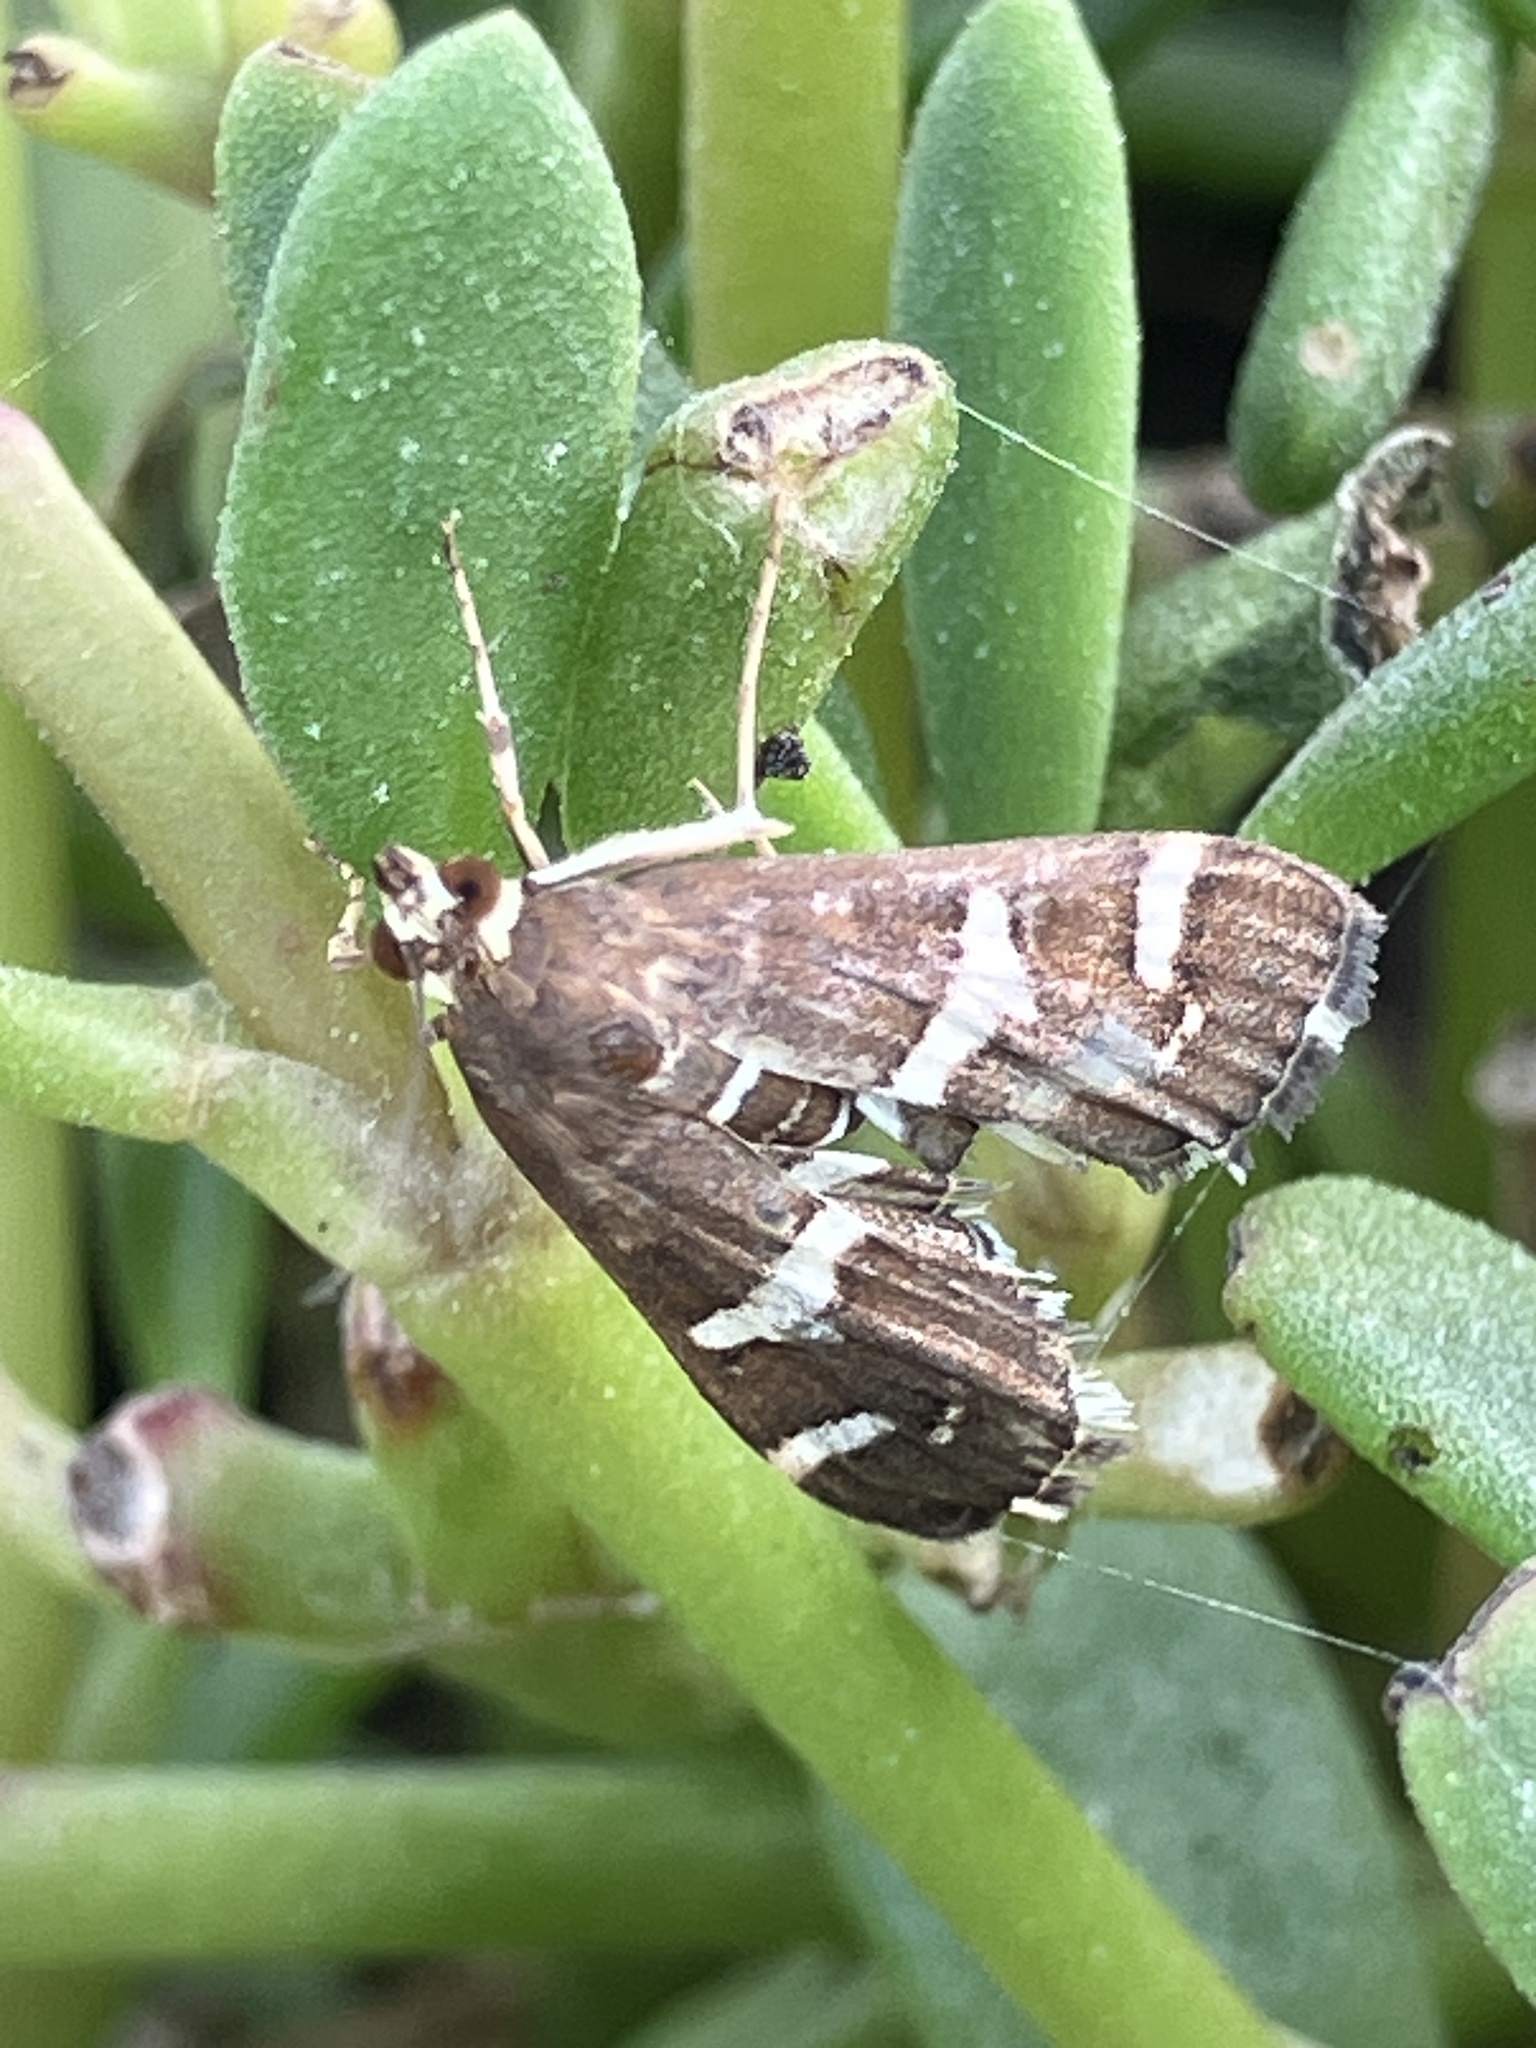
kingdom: Animalia
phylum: Arthropoda
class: Insecta
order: Lepidoptera
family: Crambidae
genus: Spoladea
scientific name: Spoladea recurvalis
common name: Beet webworm moth
